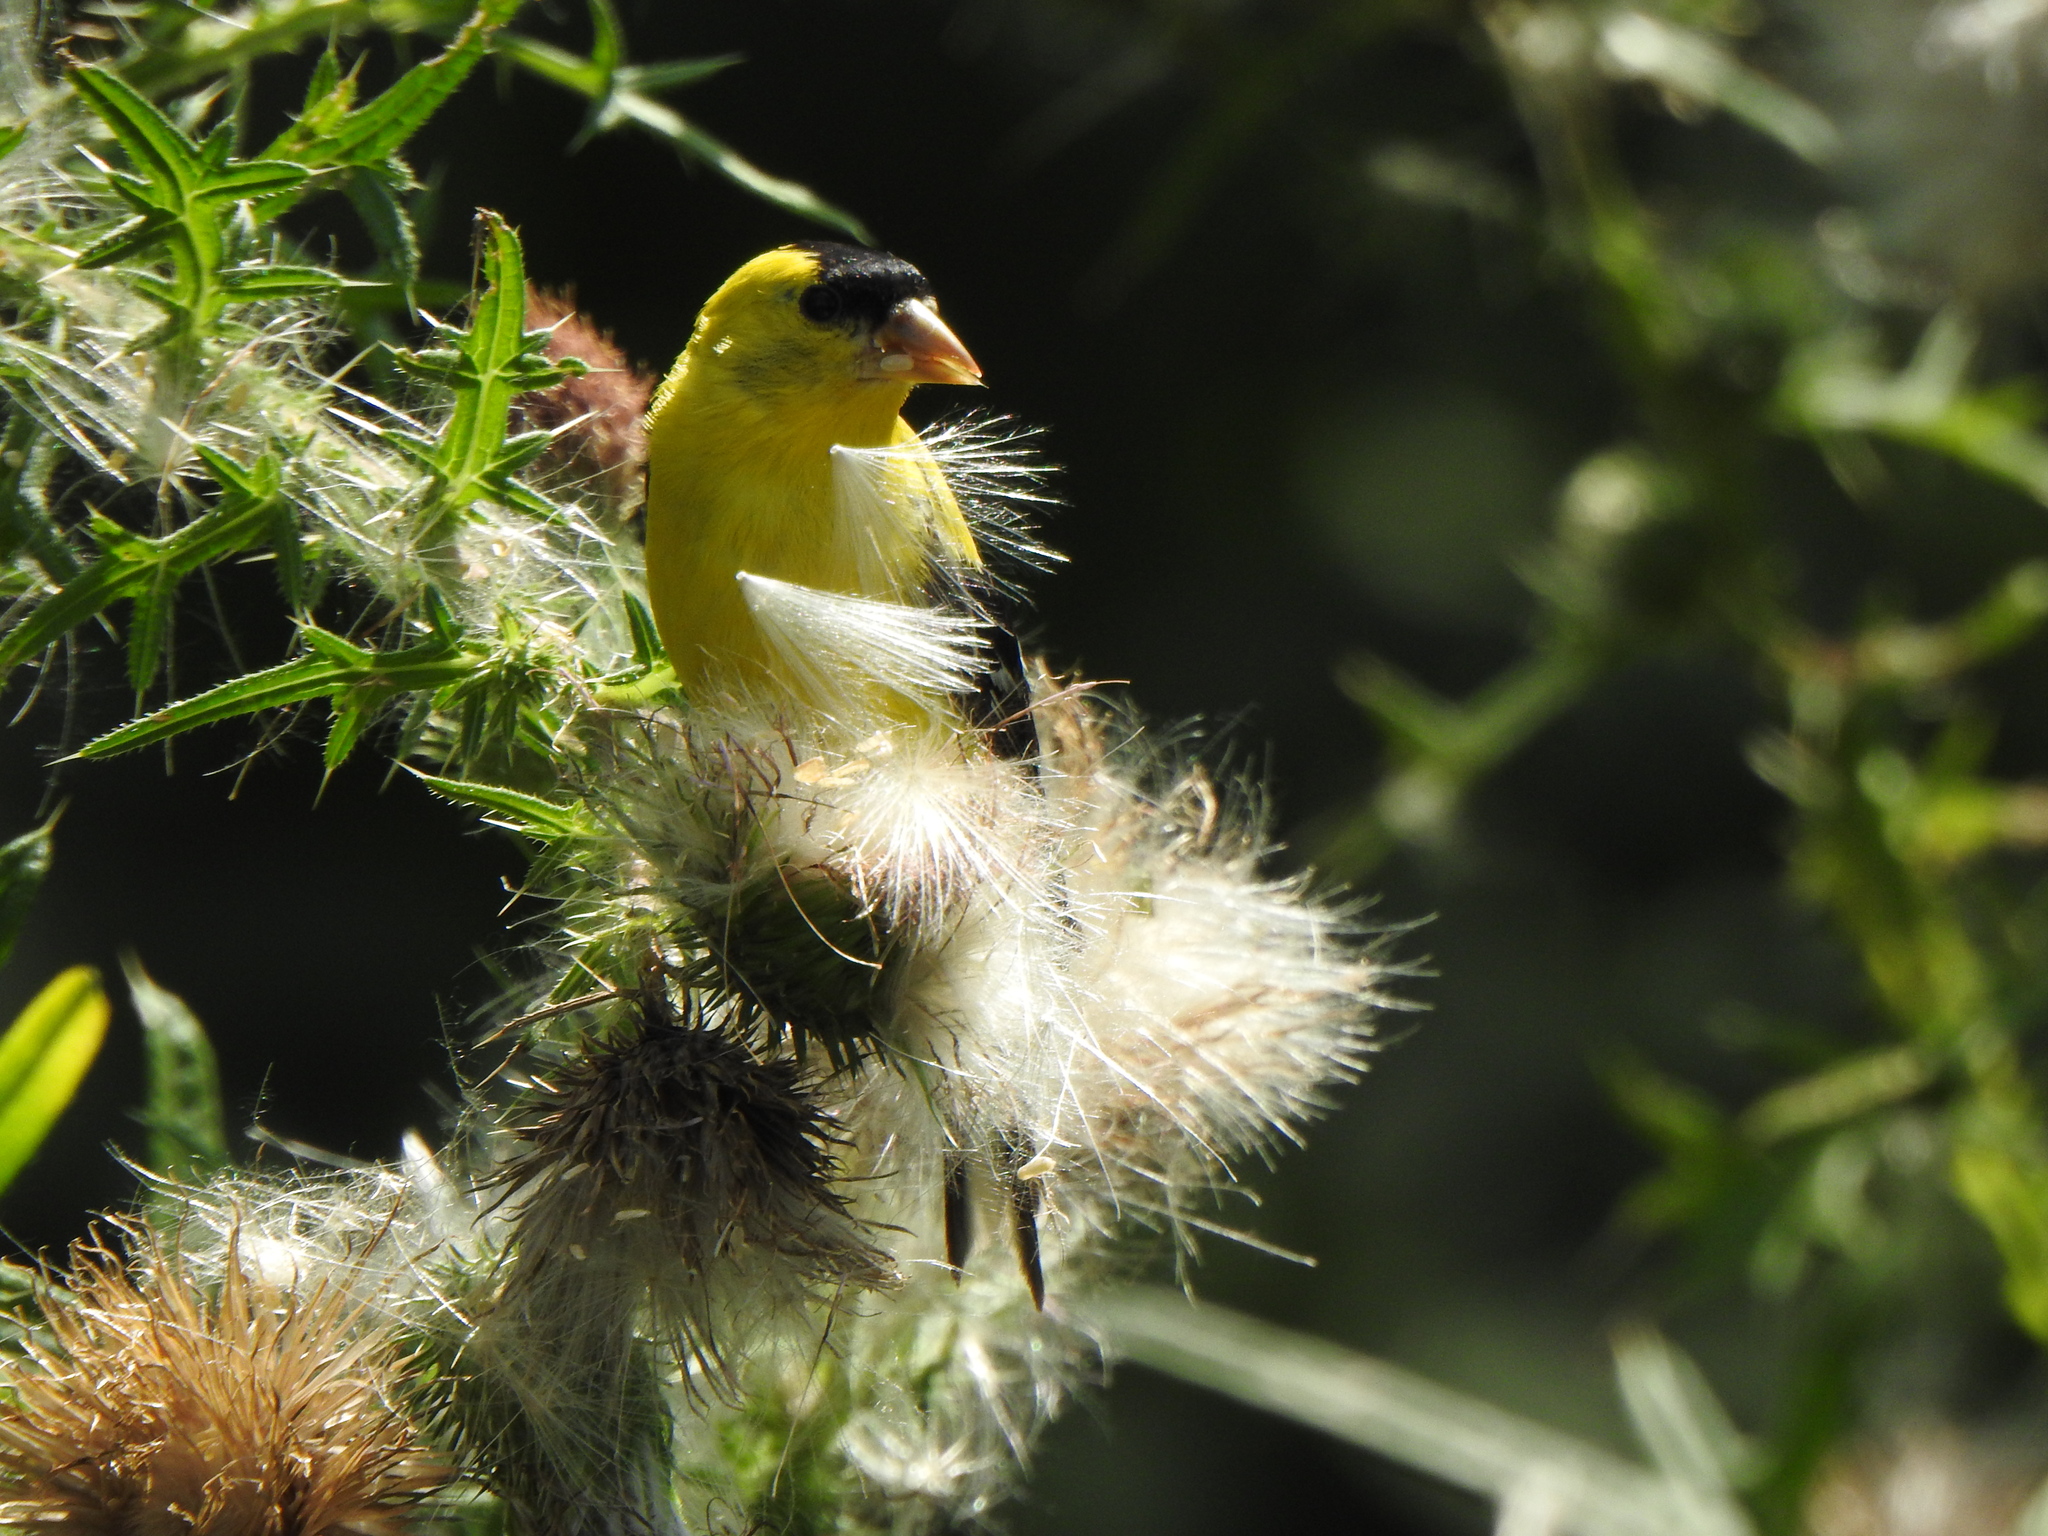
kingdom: Animalia
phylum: Chordata
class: Aves
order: Passeriformes
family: Fringillidae
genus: Spinus
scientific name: Spinus tristis
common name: American goldfinch
